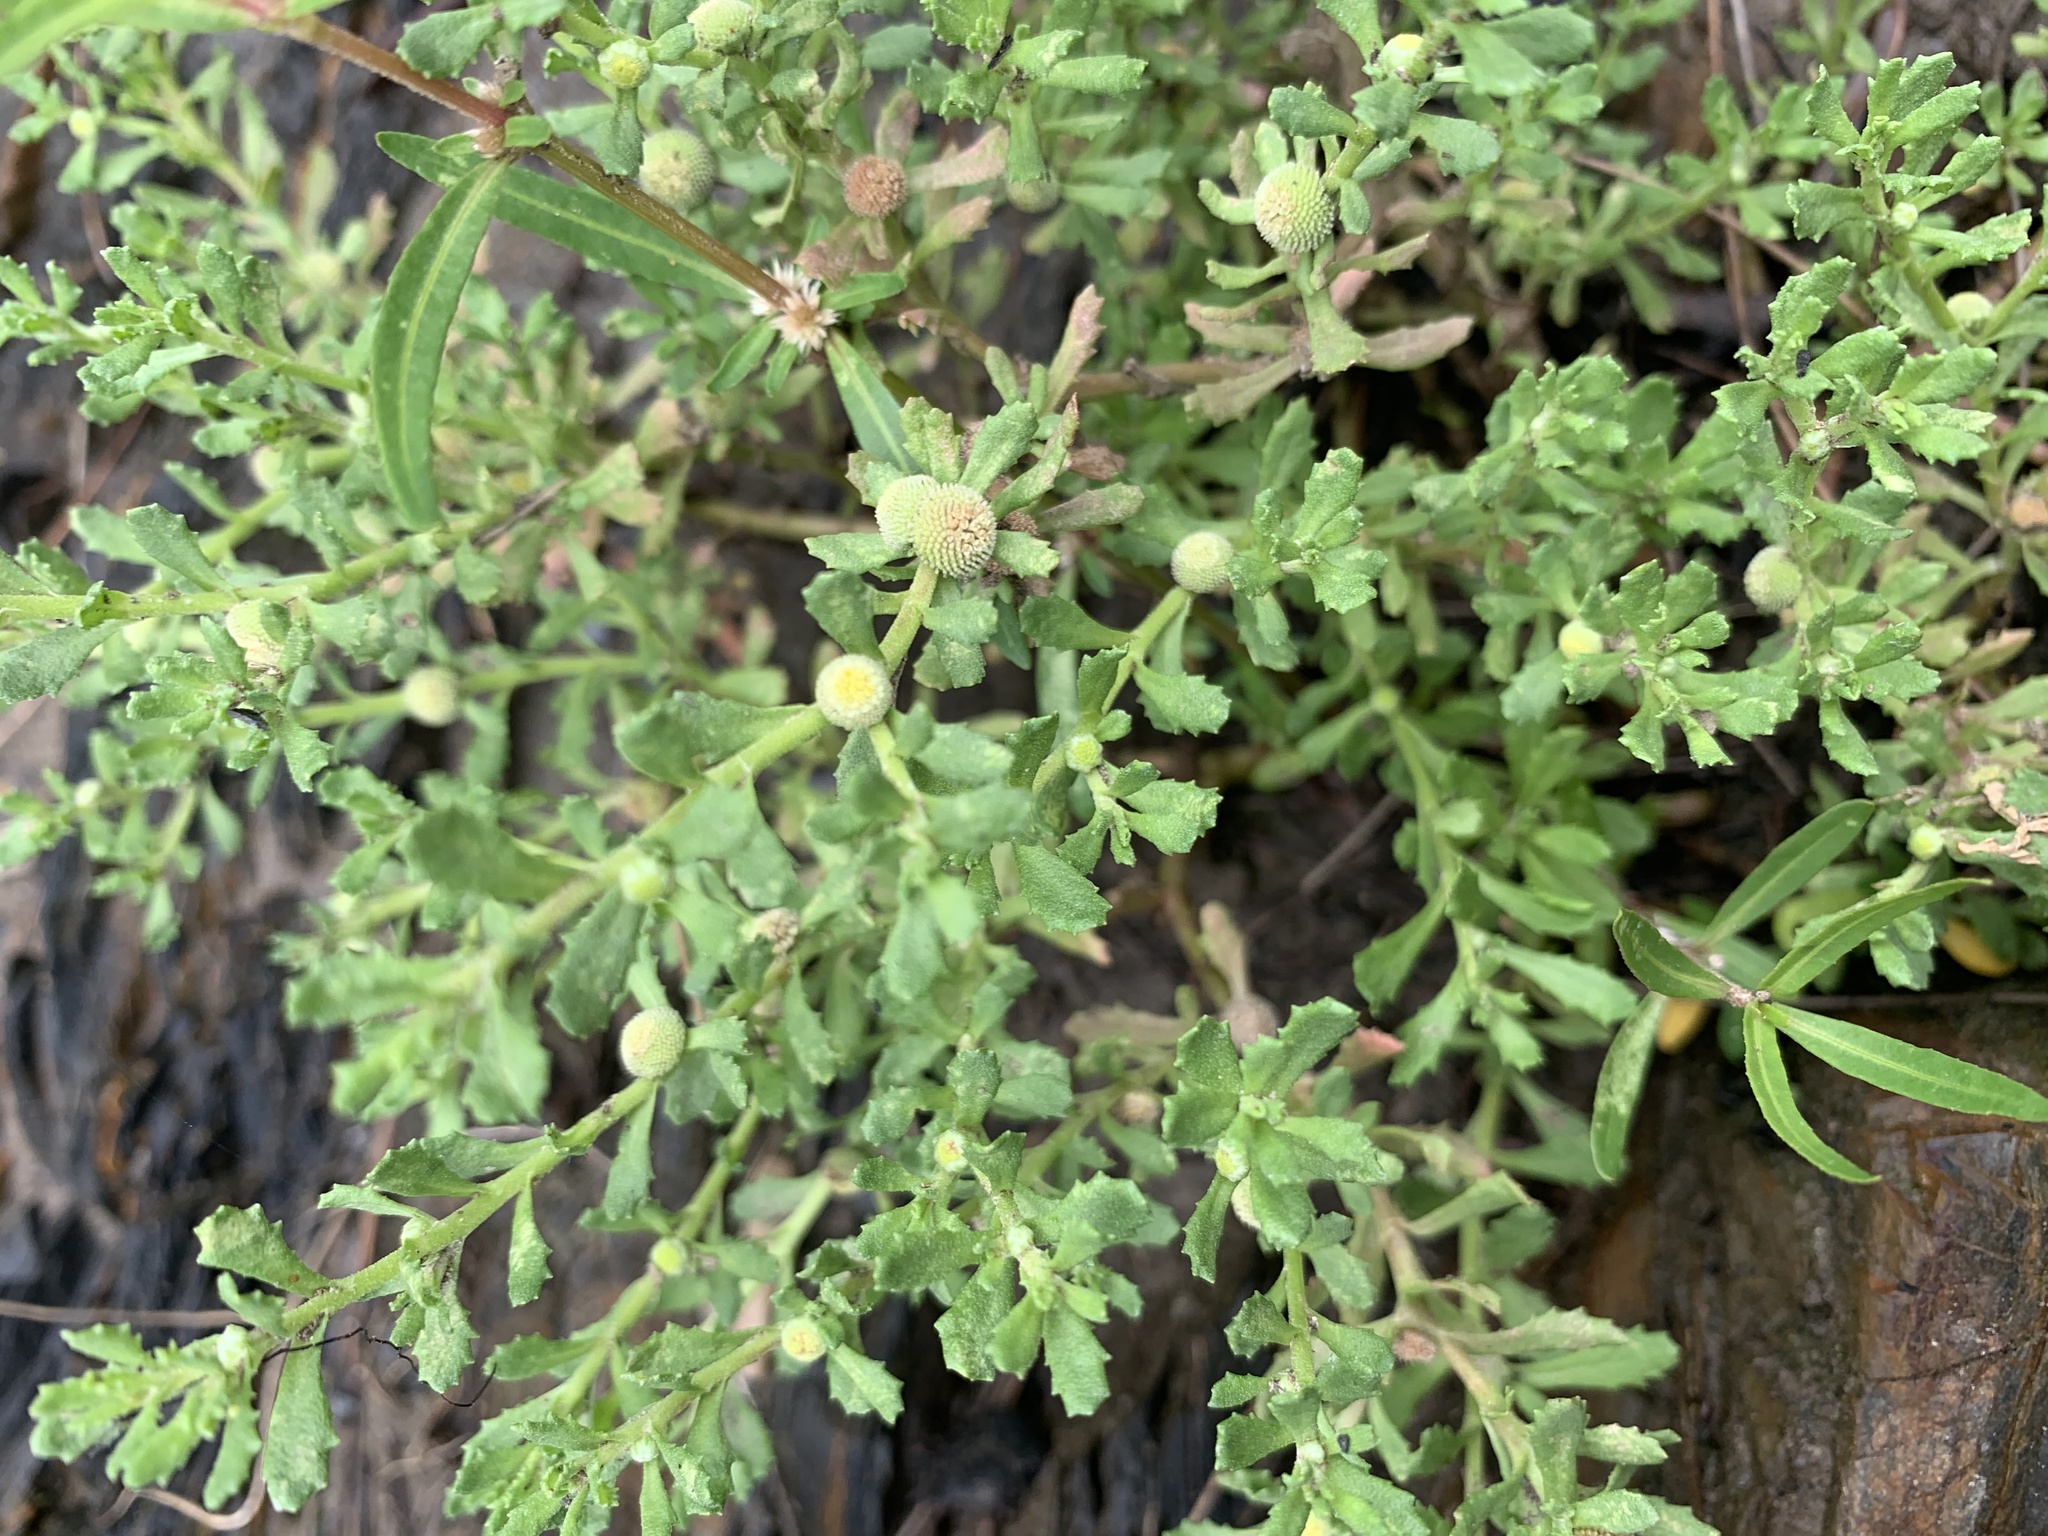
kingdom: Plantae
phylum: Tracheophyta
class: Magnoliopsida
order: Asterales
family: Asteraceae
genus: Centipeda
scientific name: Centipeda minima
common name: Spreading sneezeweed
